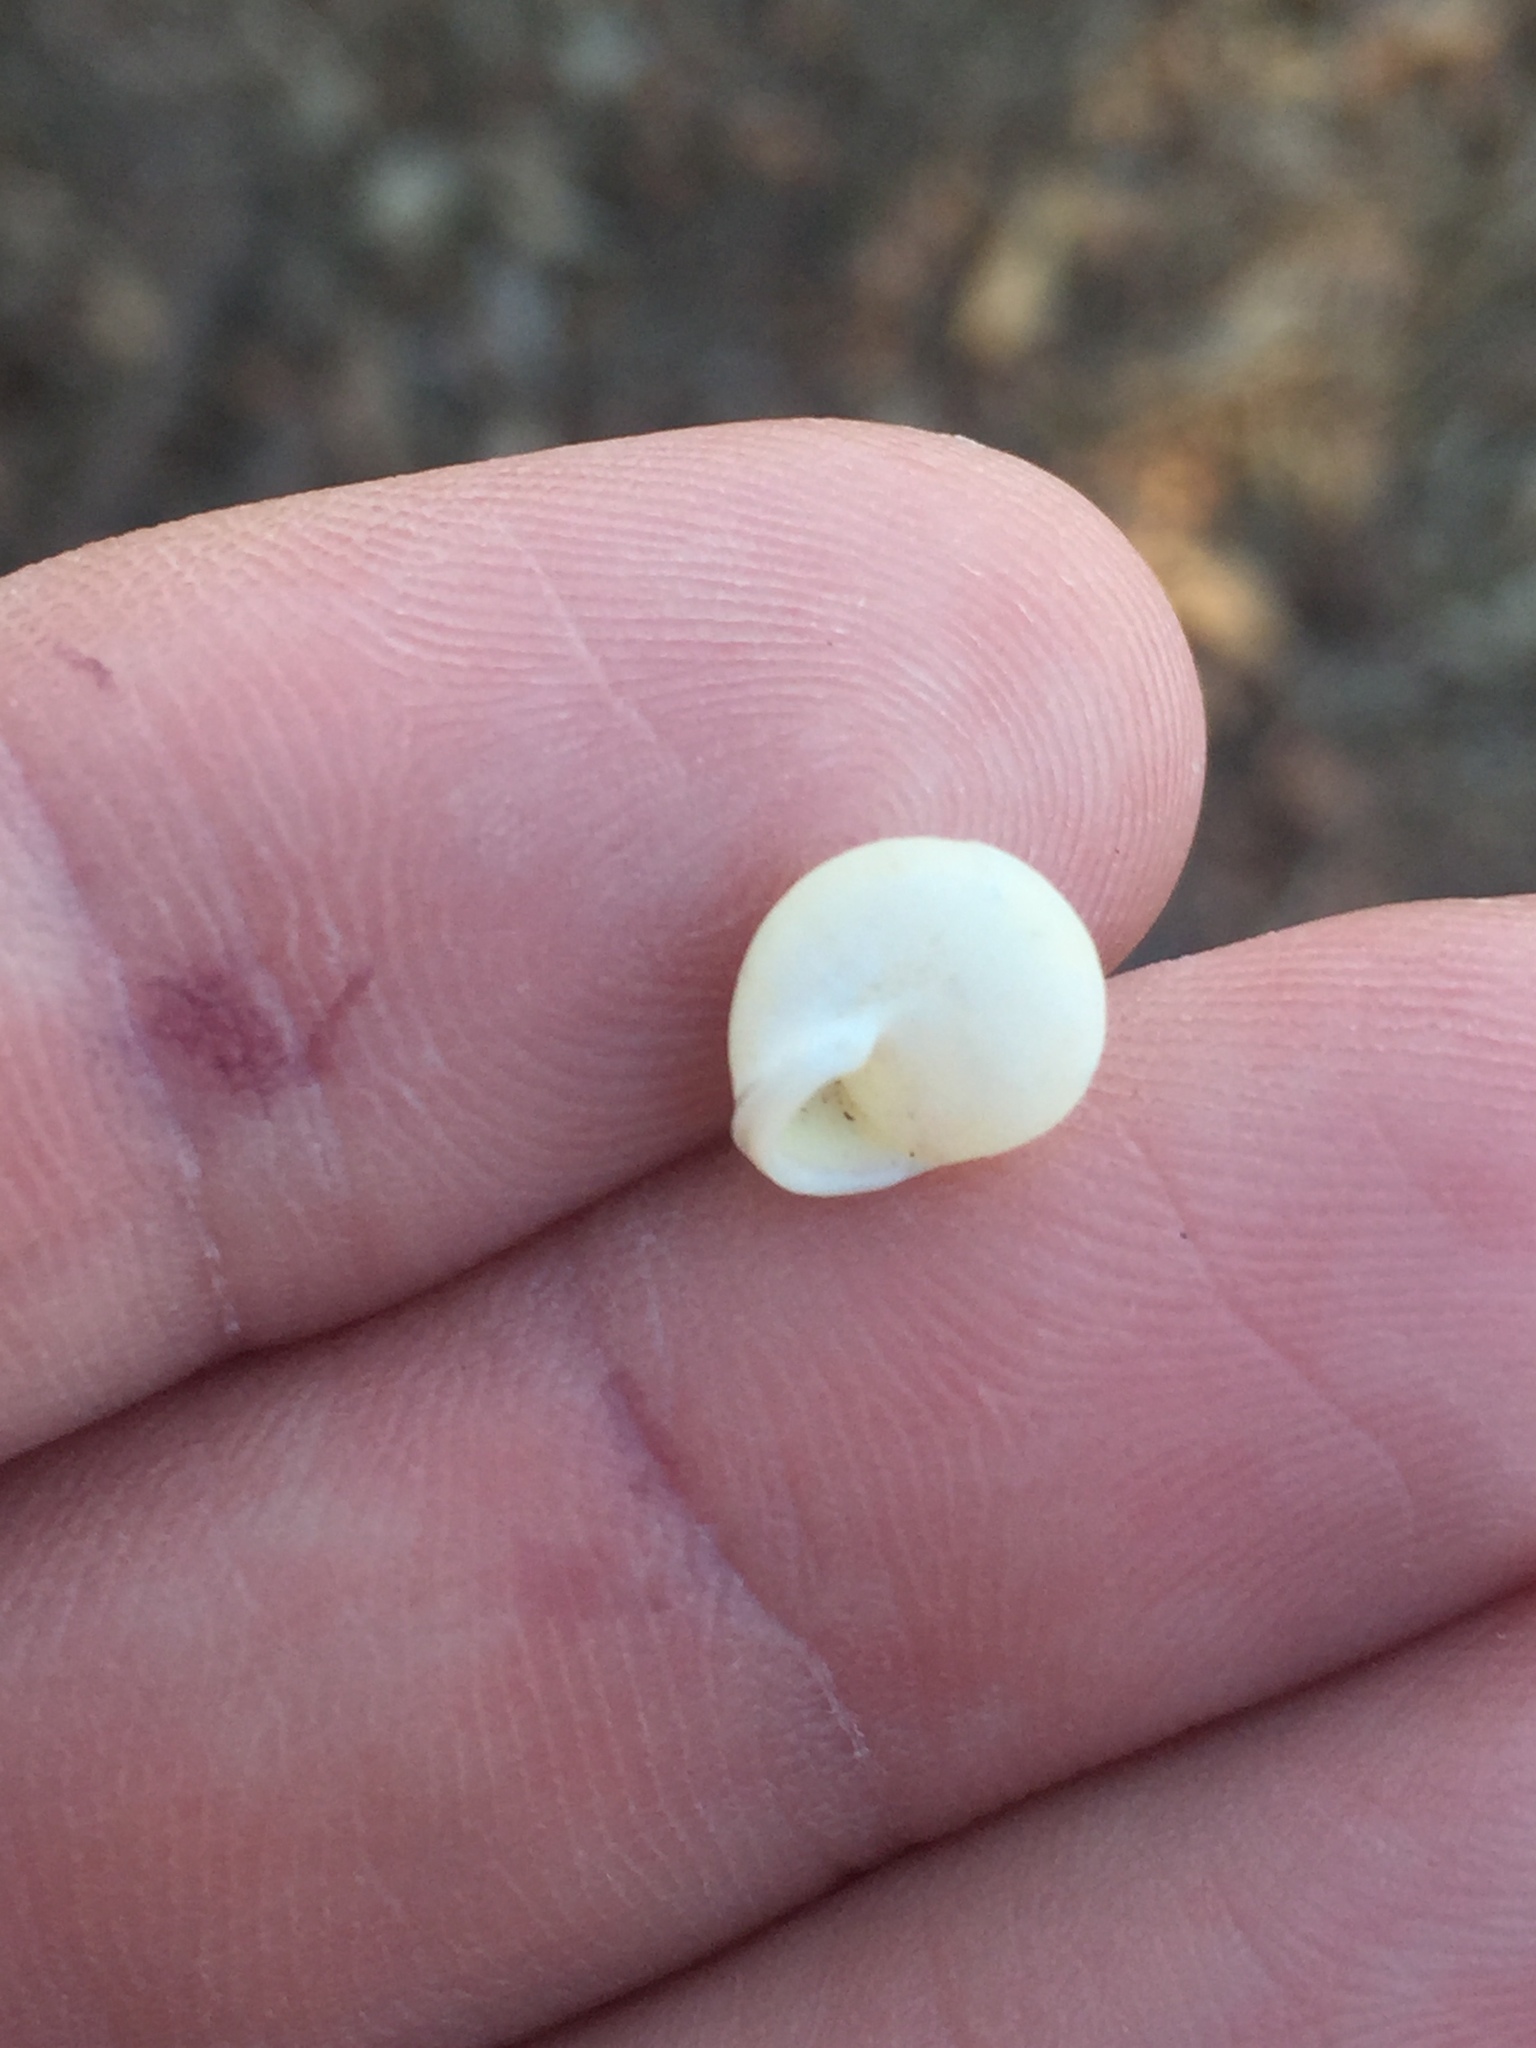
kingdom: Animalia
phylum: Mollusca
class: Gastropoda
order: Cycloneritida
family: Helicinidae
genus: Helicina
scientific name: Helicina orbiculata
